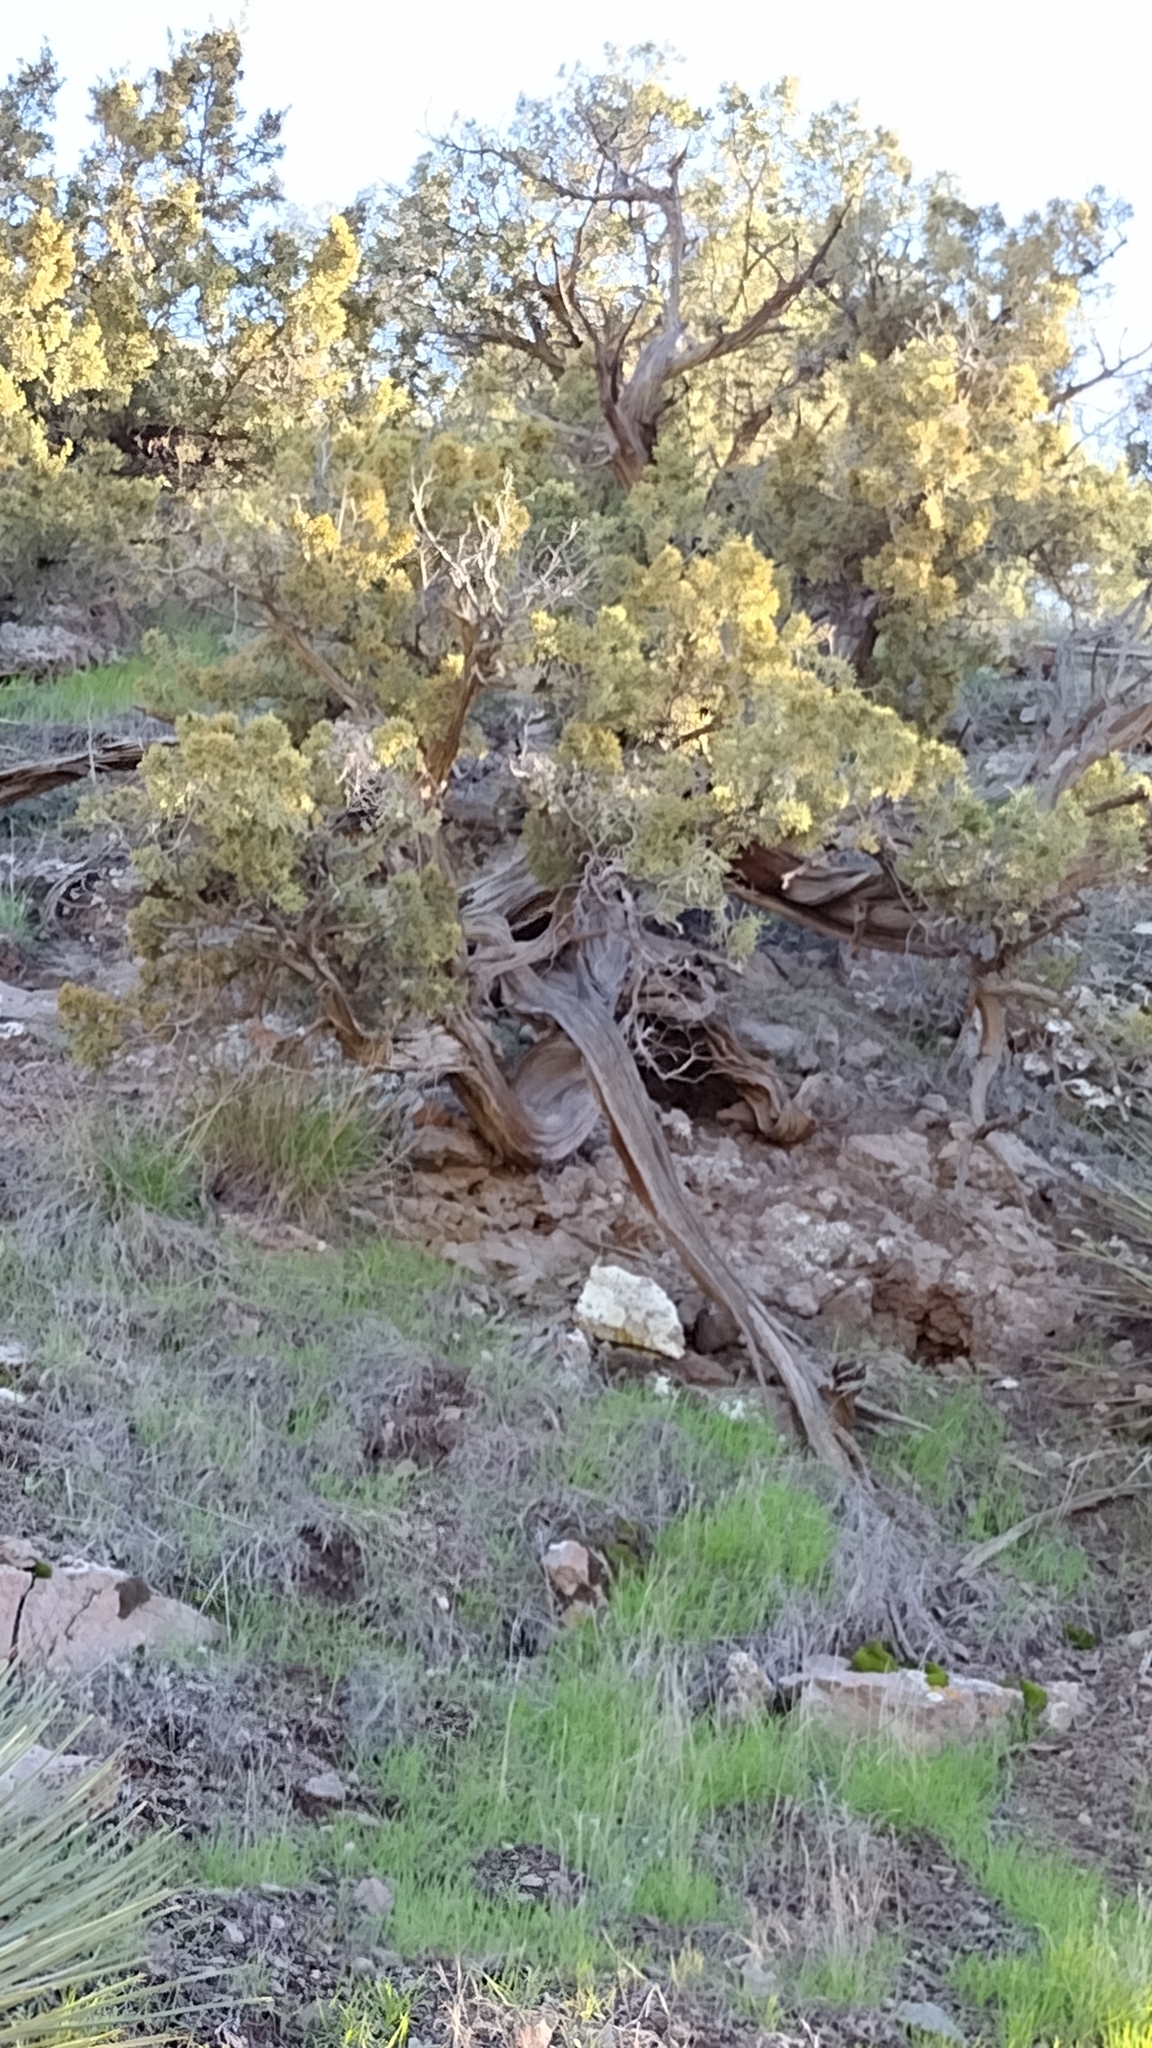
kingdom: Plantae
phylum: Tracheophyta
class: Pinopsida
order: Pinales
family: Cupressaceae
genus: Juniperus
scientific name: Juniperus californica
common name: California juniper
